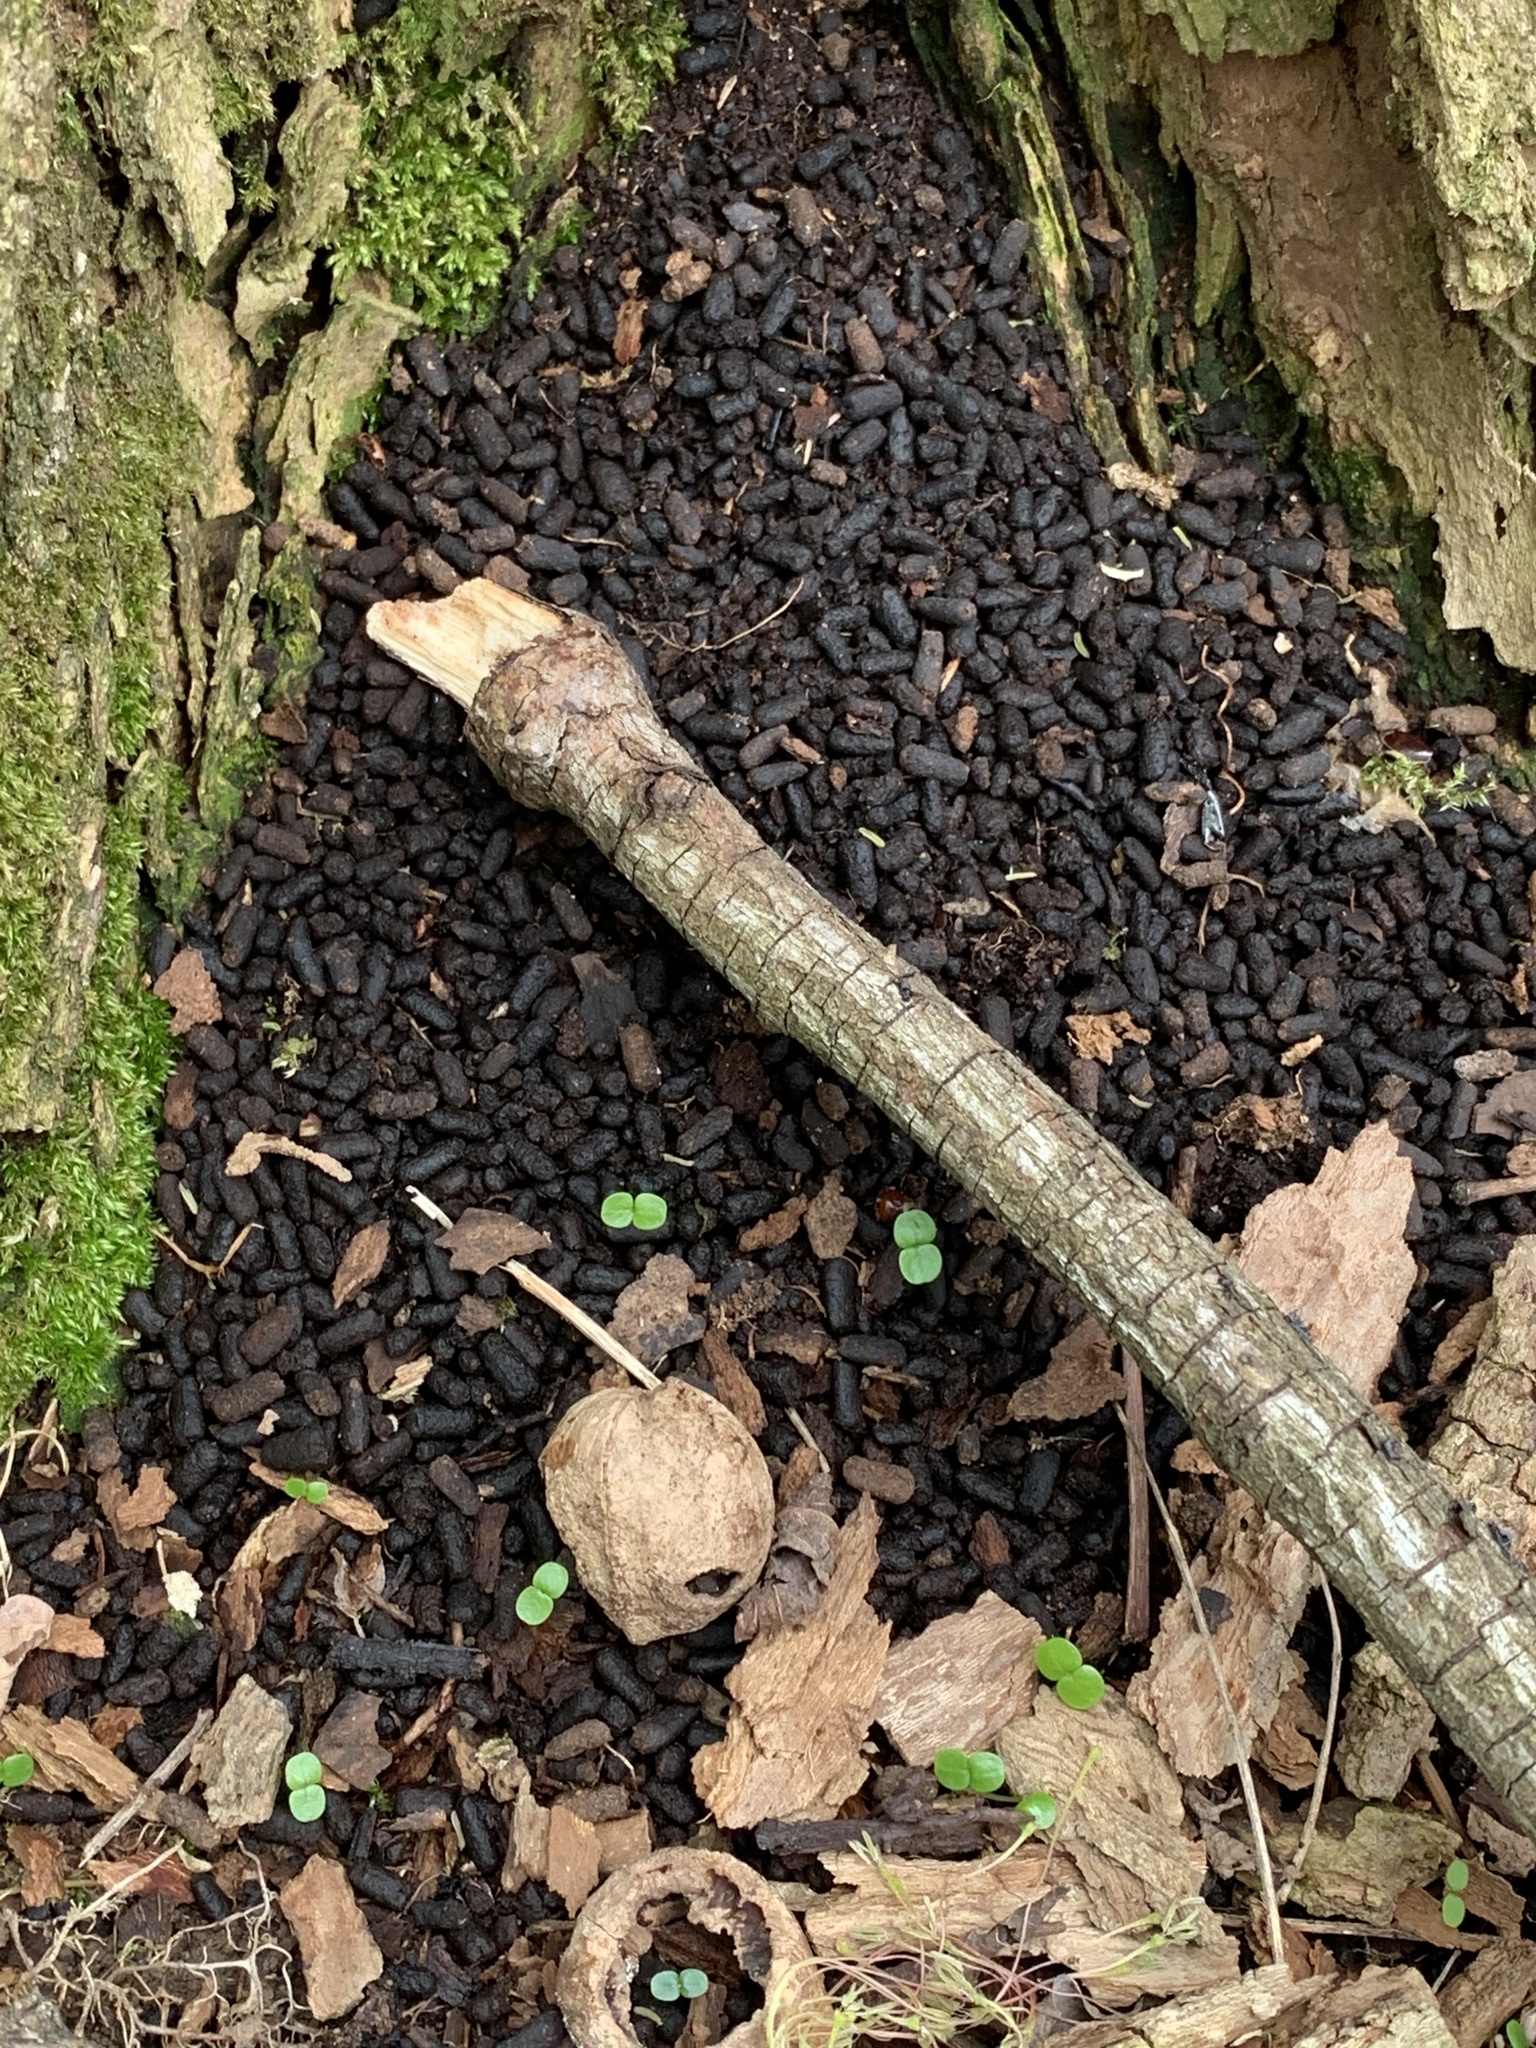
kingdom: Animalia
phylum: Chordata
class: Mammalia
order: Rodentia
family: Erethizontidae
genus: Erethizon
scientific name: Erethizon dorsatus
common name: North american porcupine
